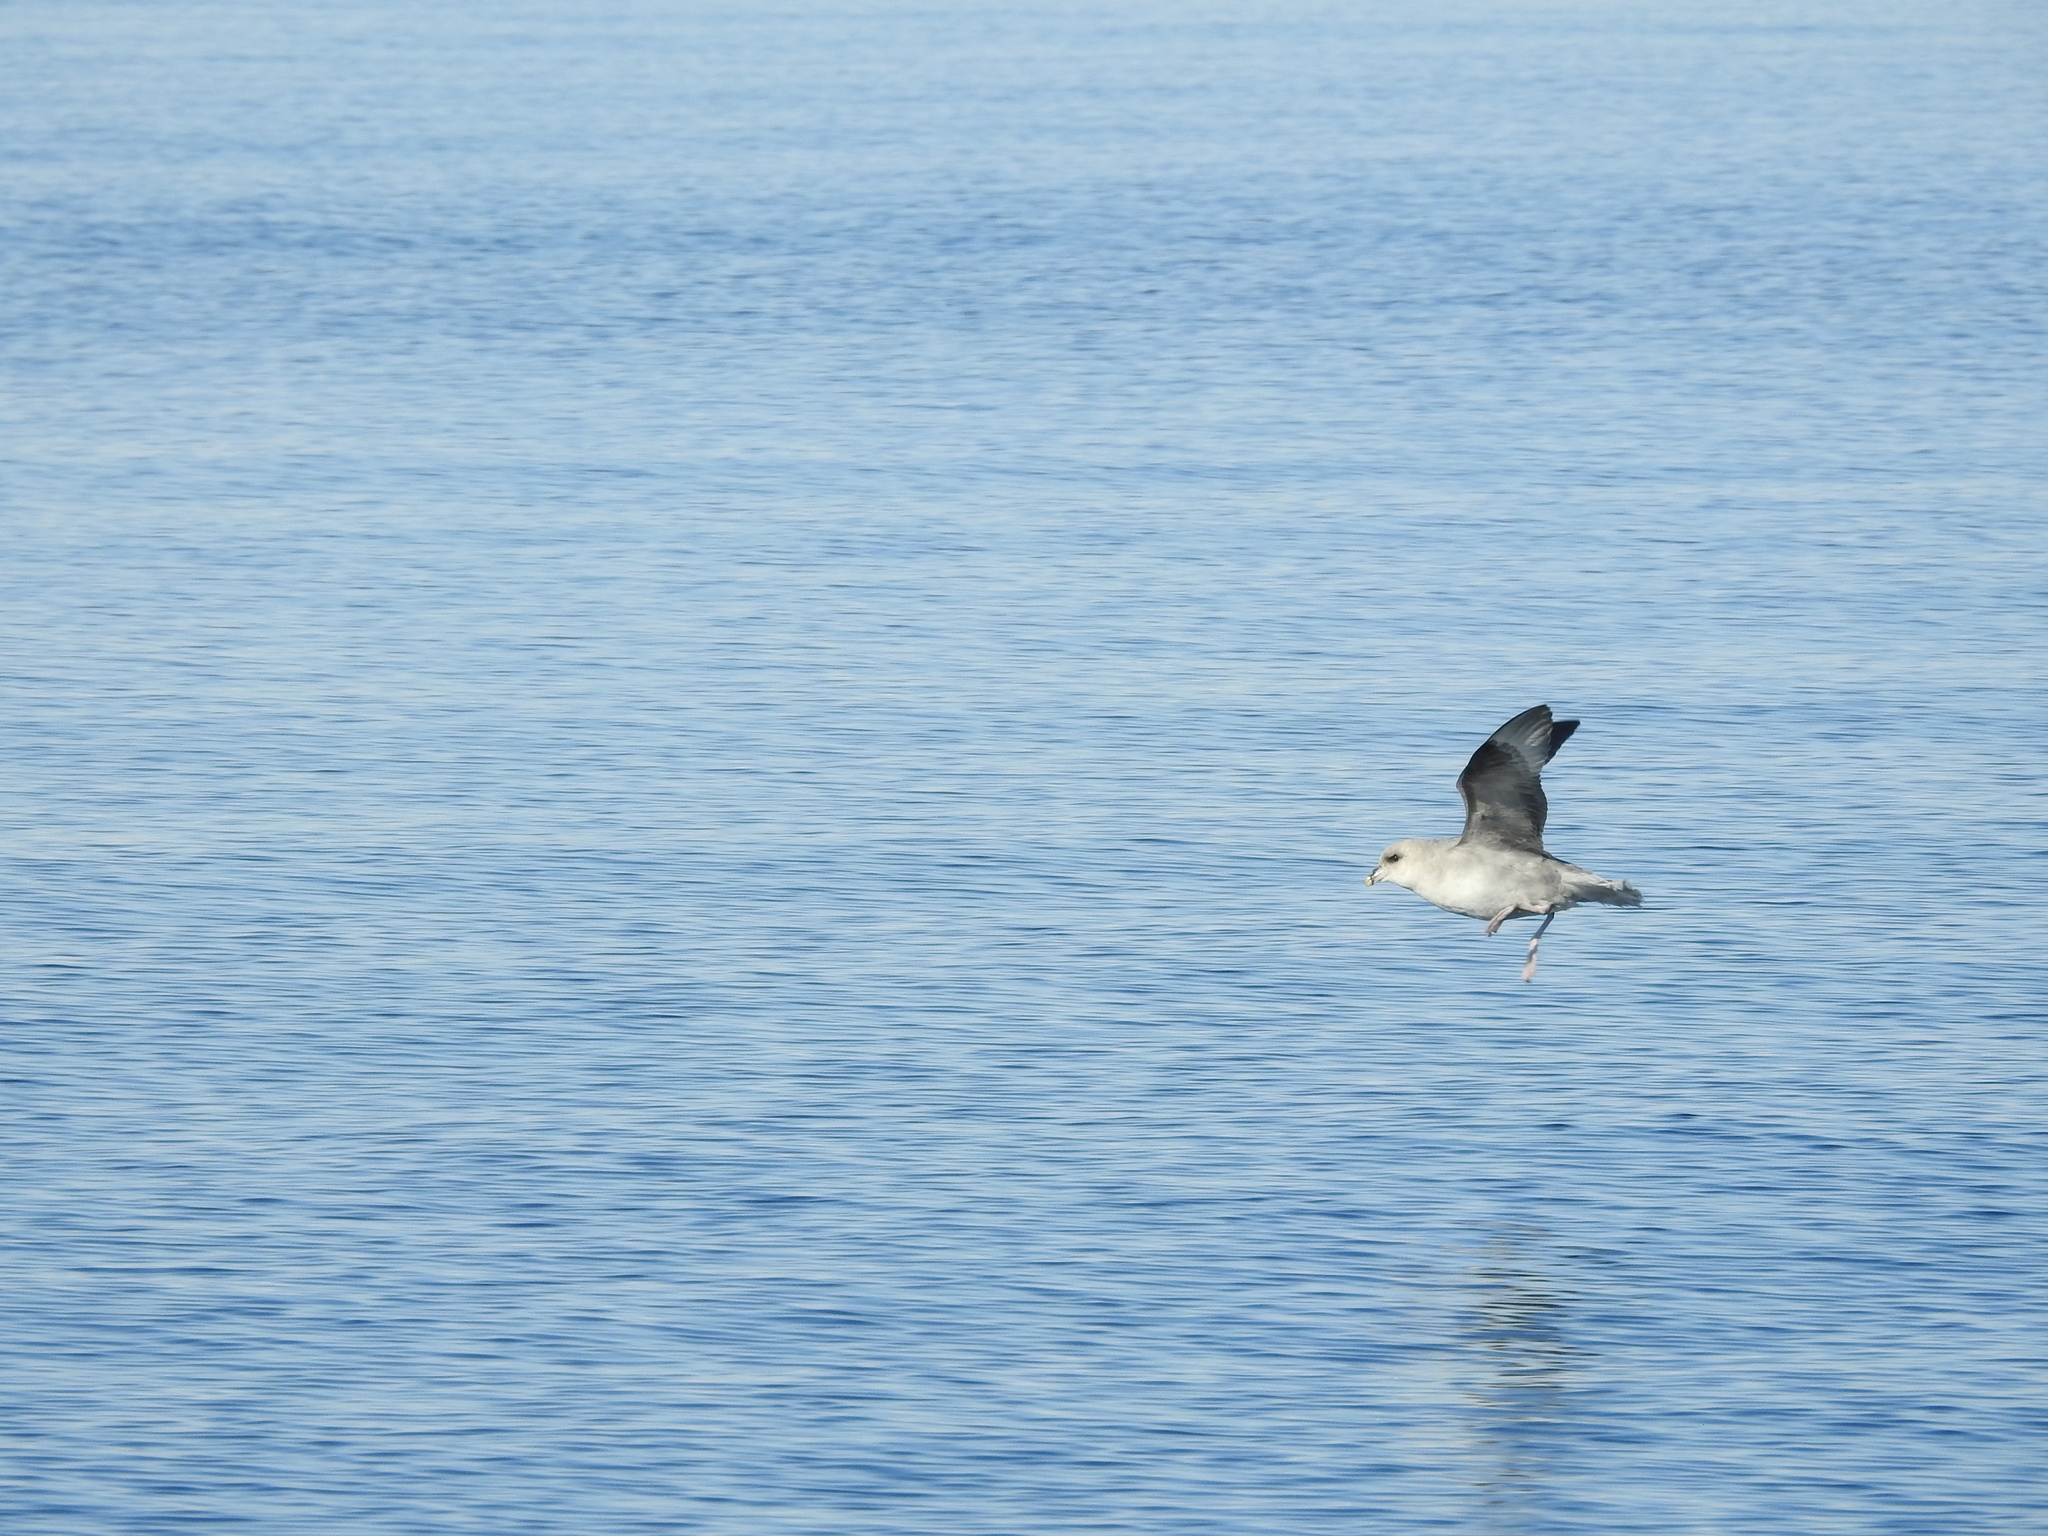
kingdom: Animalia
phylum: Chordata
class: Aves
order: Procellariiformes
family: Procellariidae
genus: Fulmarus
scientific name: Fulmarus glacialis
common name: Northern fulmar
